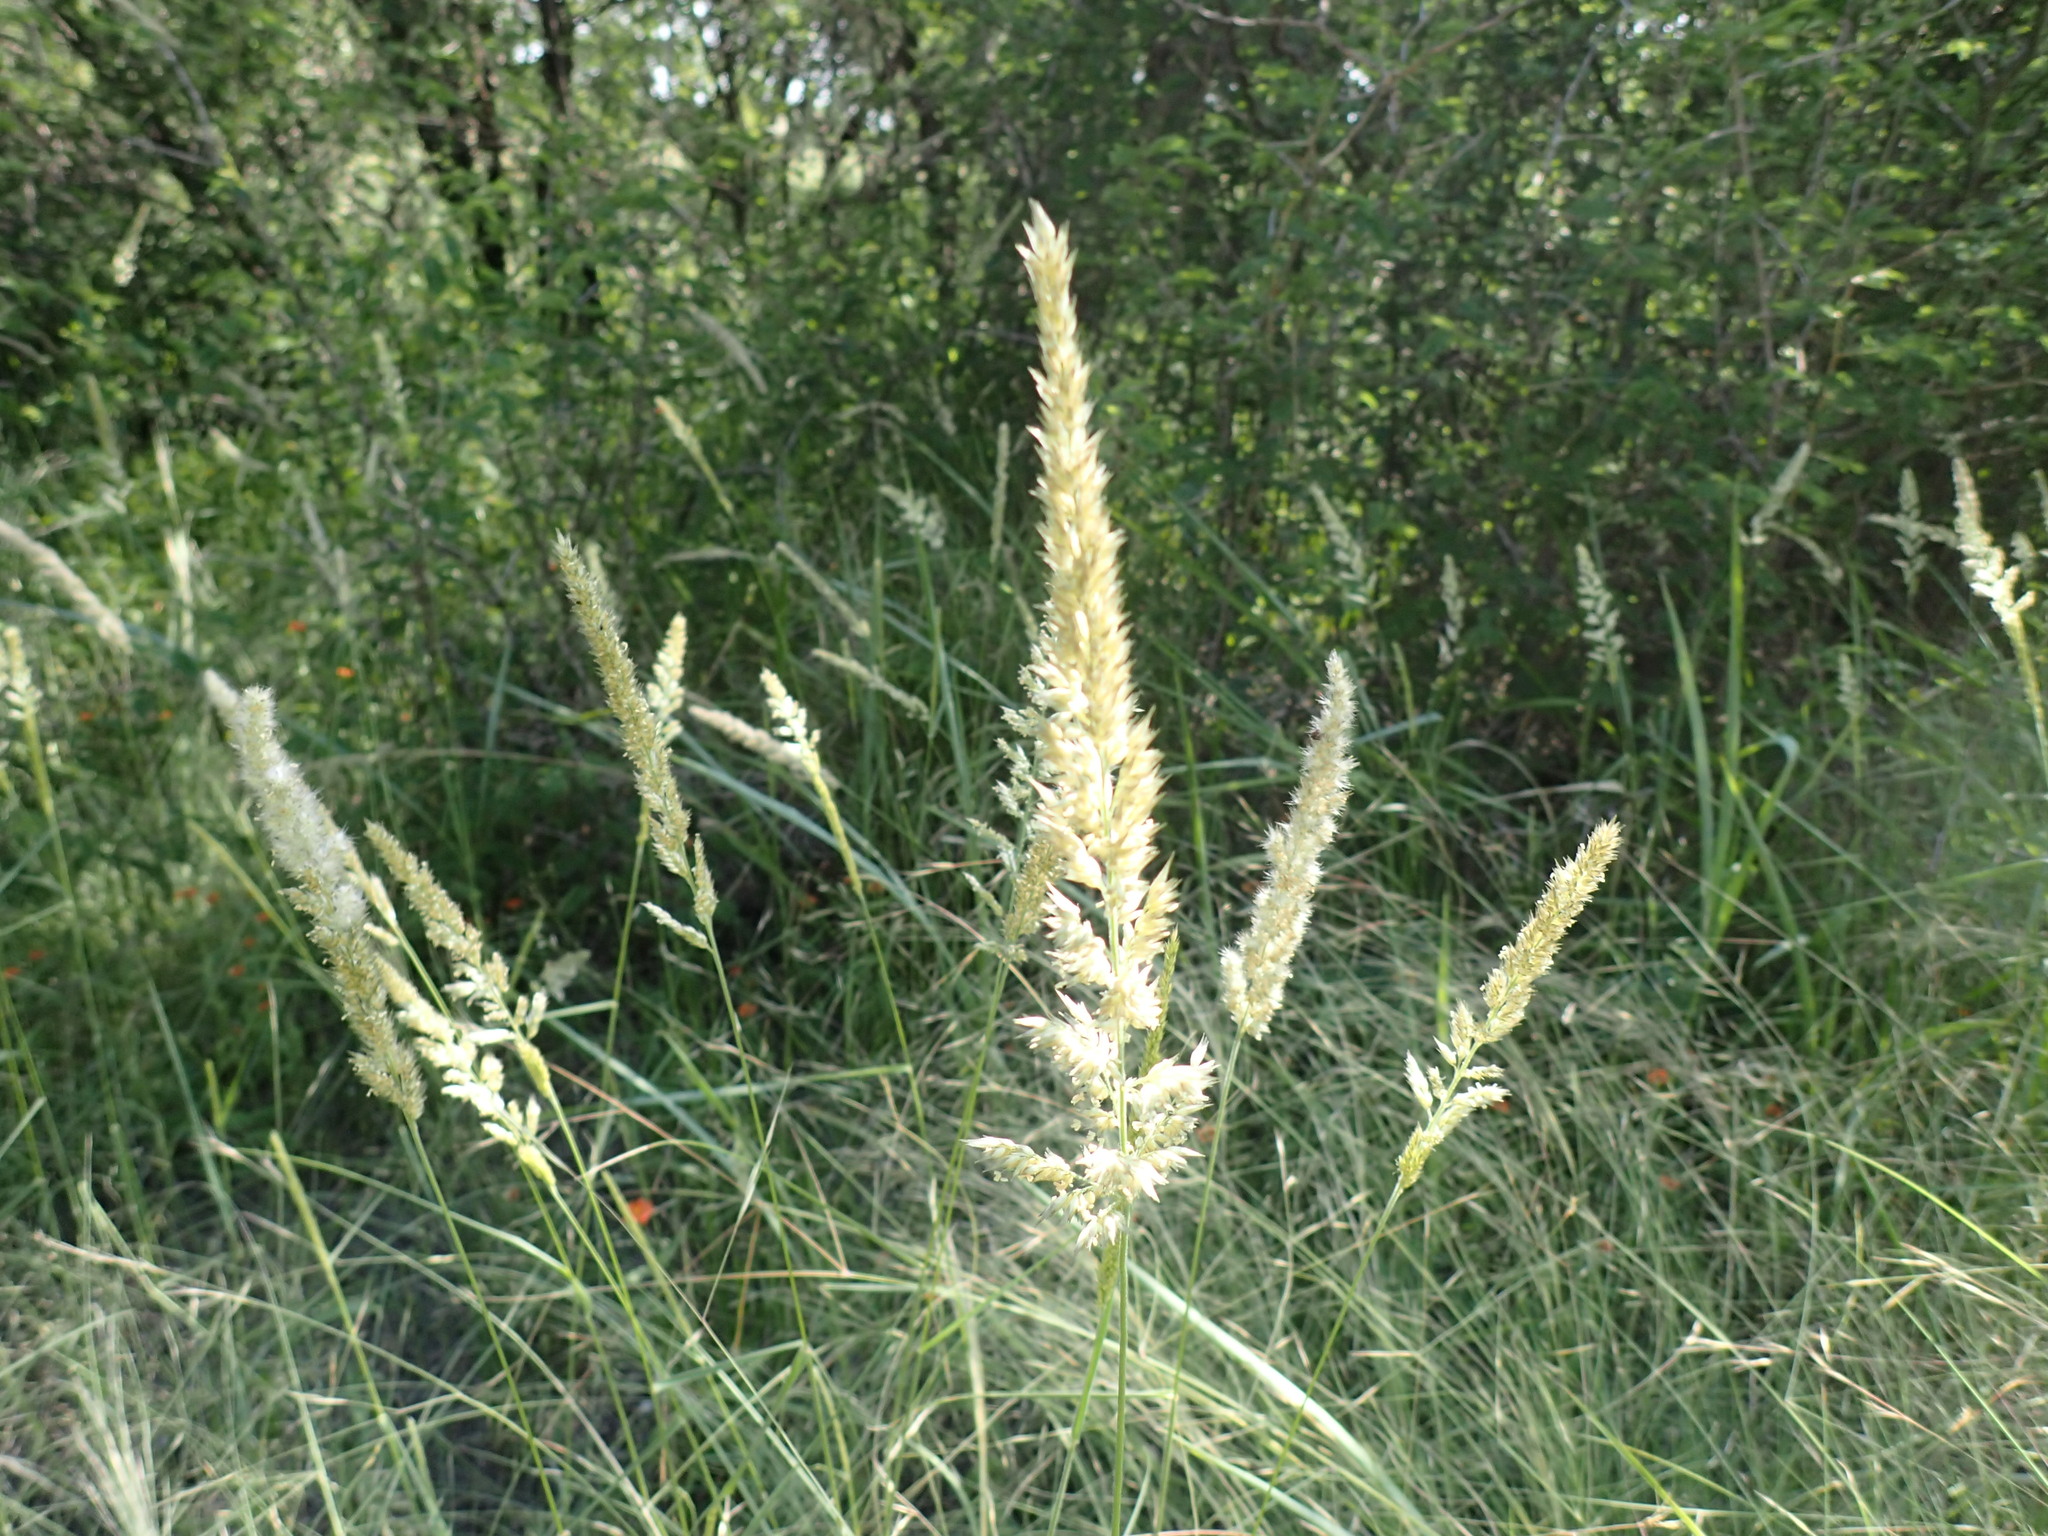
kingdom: Plantae
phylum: Tracheophyta
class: Liliopsida
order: Poales
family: Poaceae
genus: Enneapogon
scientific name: Enneapogon cenchroides
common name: Soft feather pappusgrass
